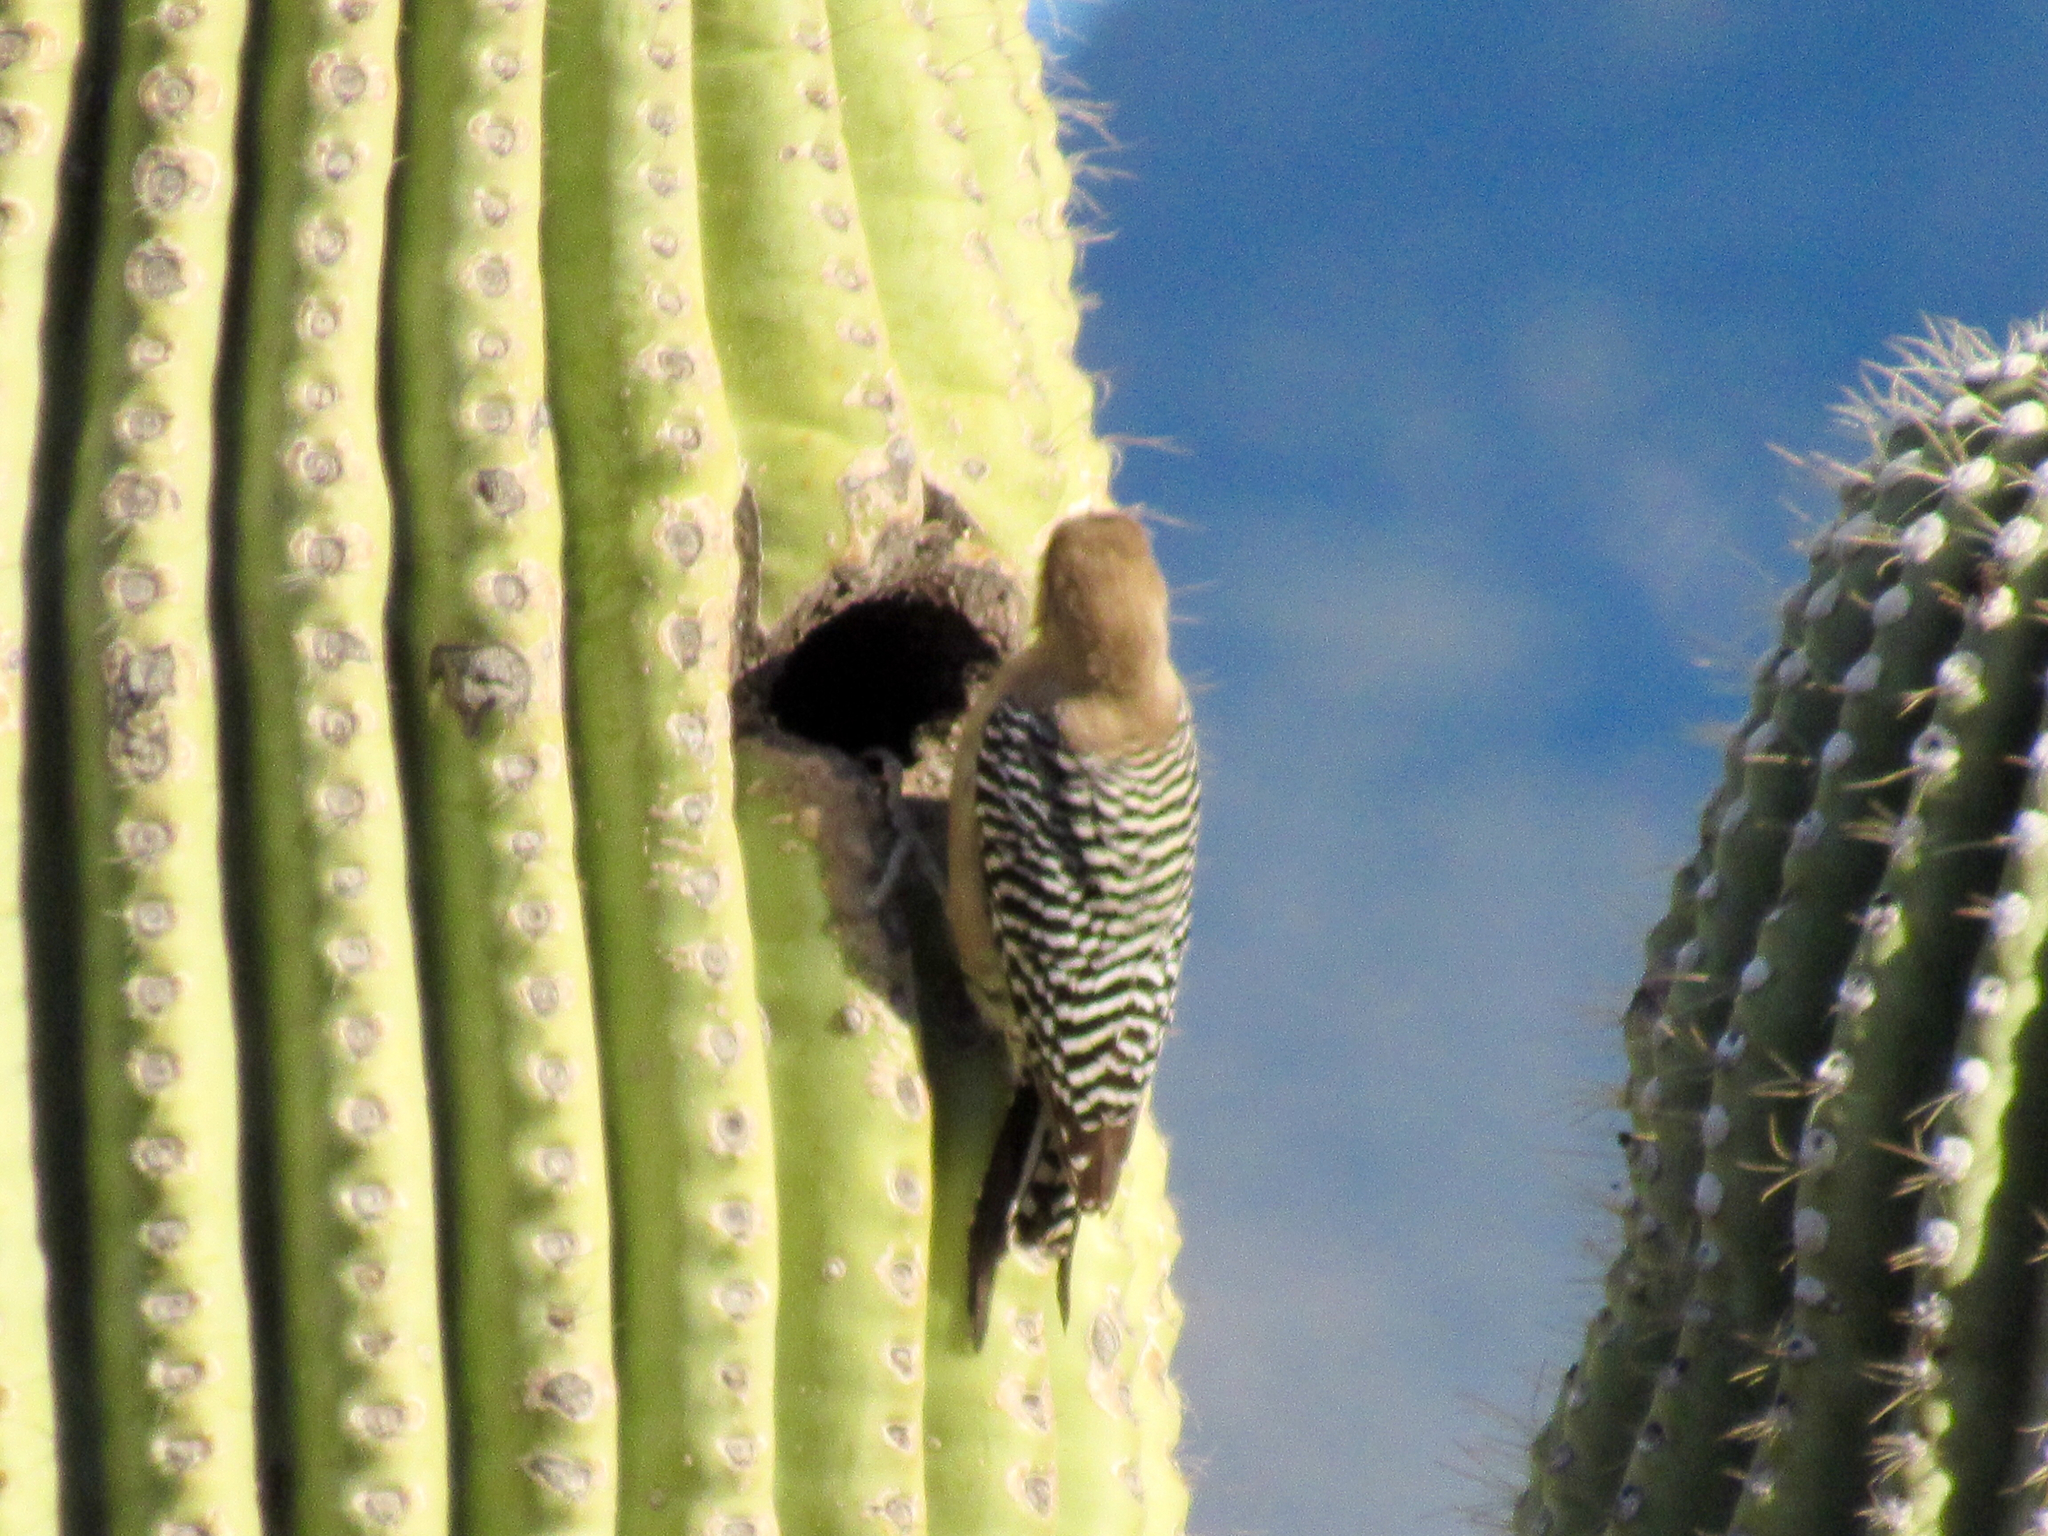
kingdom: Animalia
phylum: Chordata
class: Aves
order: Piciformes
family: Picidae
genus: Melanerpes
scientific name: Melanerpes uropygialis
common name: Gila woodpecker
